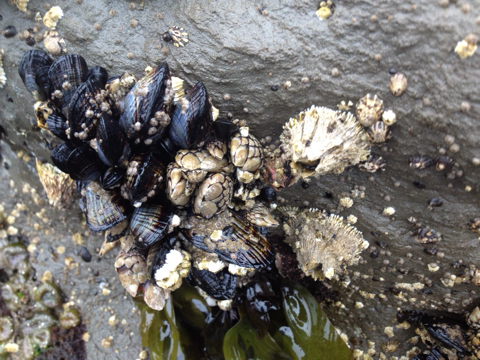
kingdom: Animalia
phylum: Arthropoda
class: Maxillopoda
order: Sessilia
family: Archaeobalanidae
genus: Semibalanus
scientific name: Semibalanus cariosus
